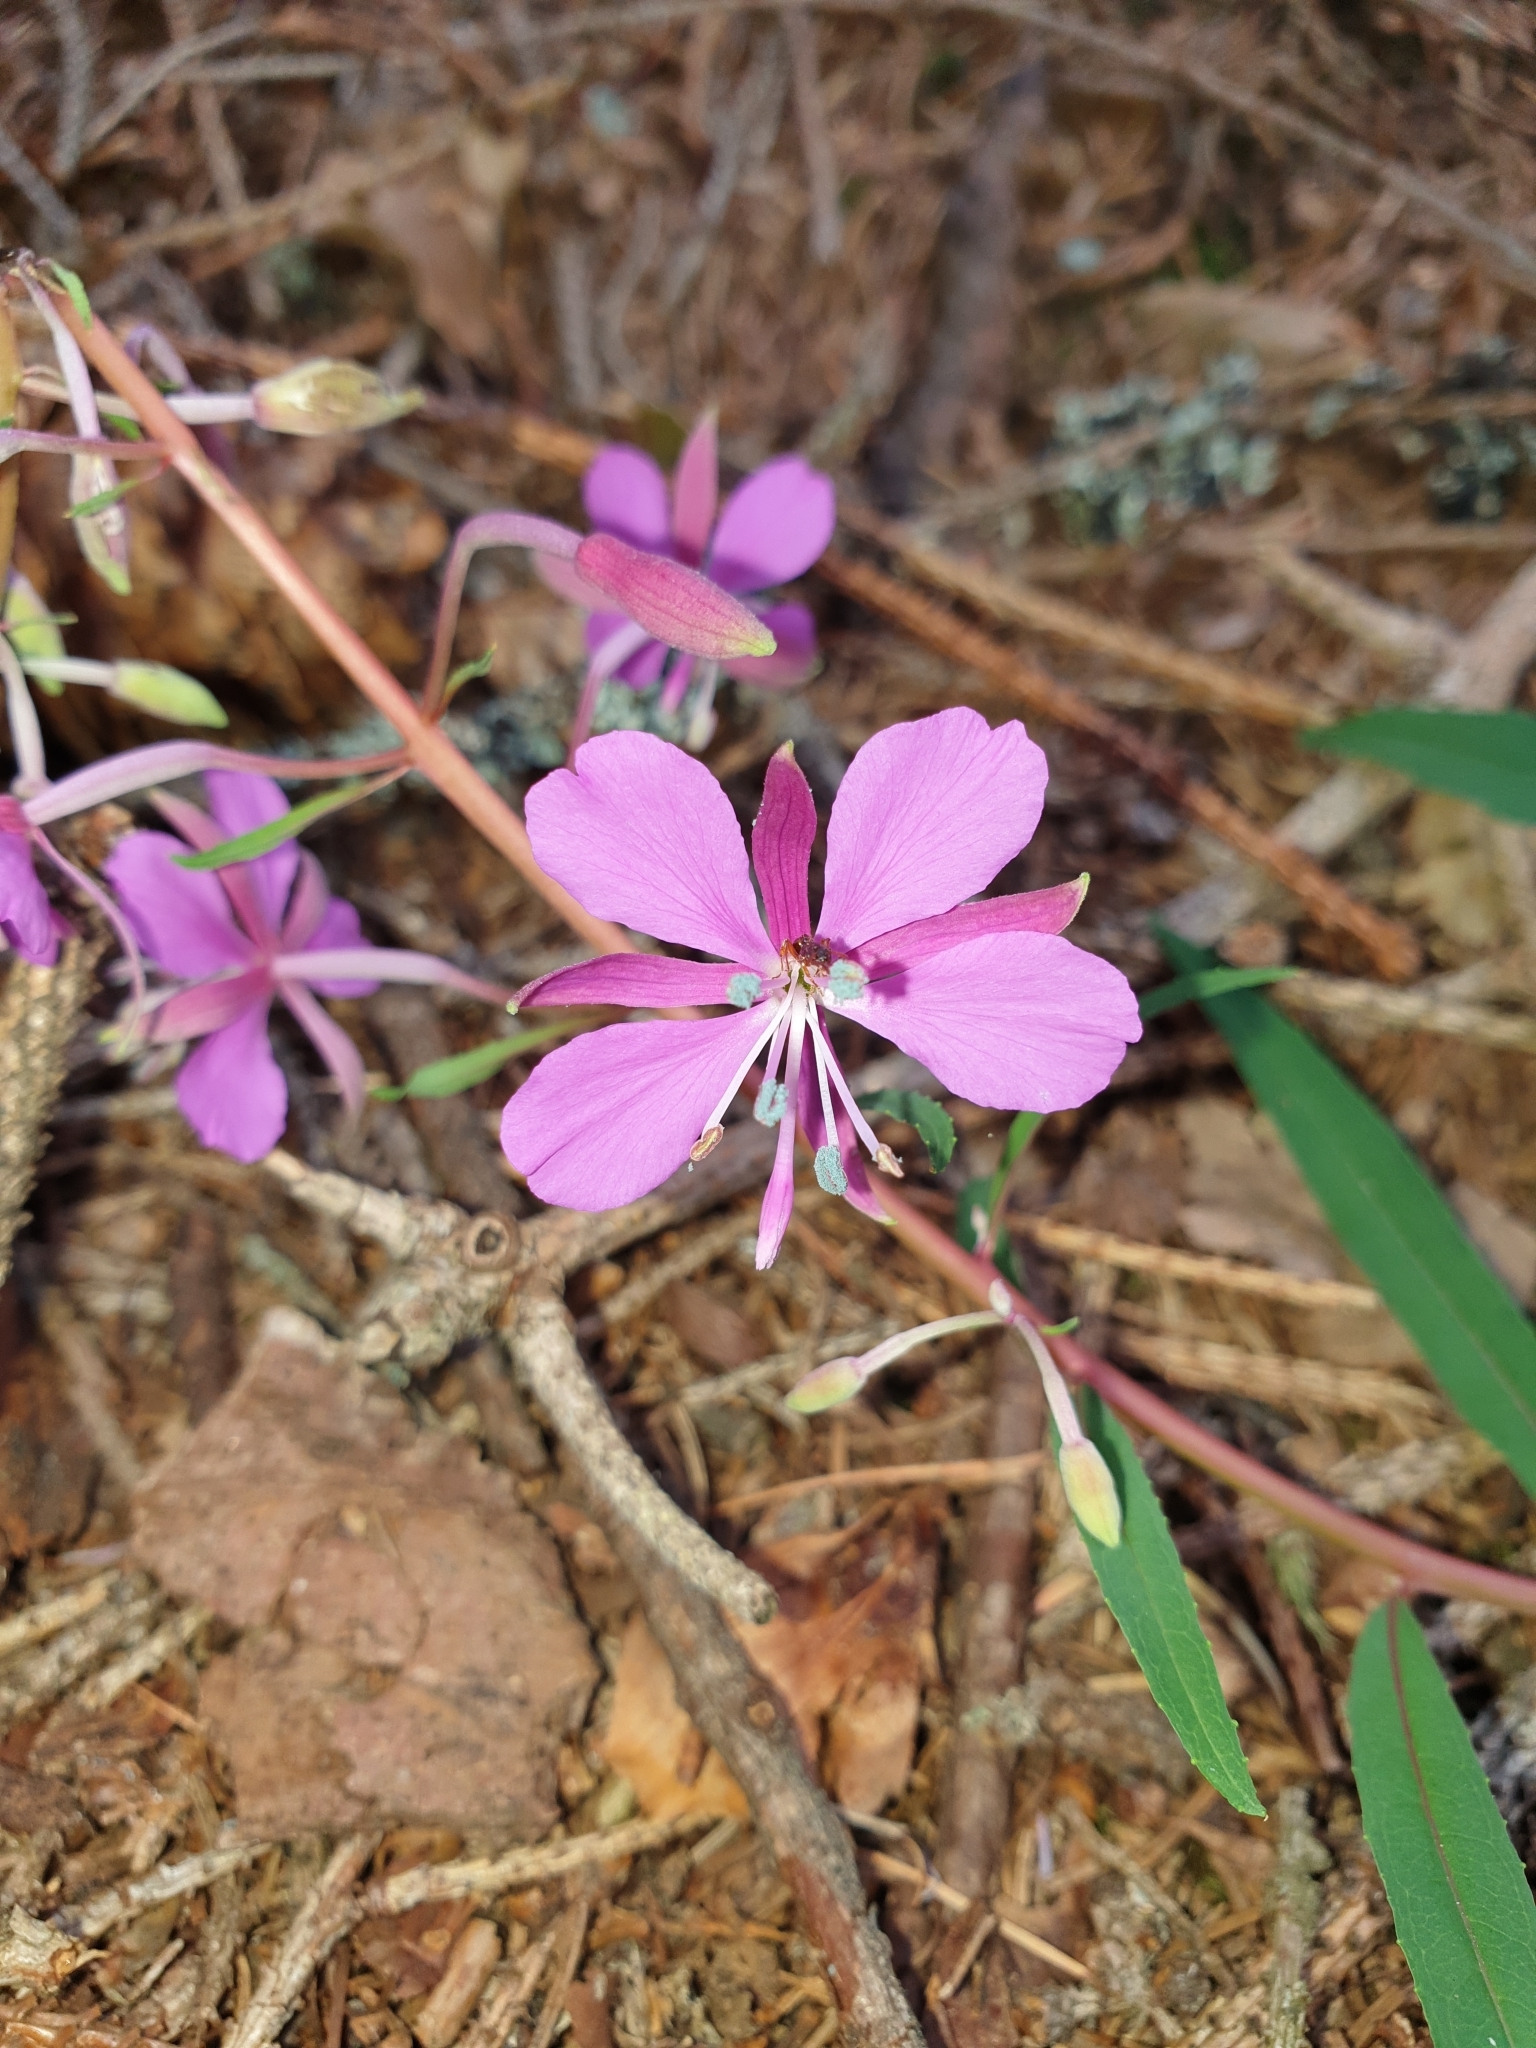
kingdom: Plantae
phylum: Tracheophyta
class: Magnoliopsida
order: Myrtales
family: Onagraceae
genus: Chamaenerion
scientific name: Chamaenerion angustifolium
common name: Fireweed
